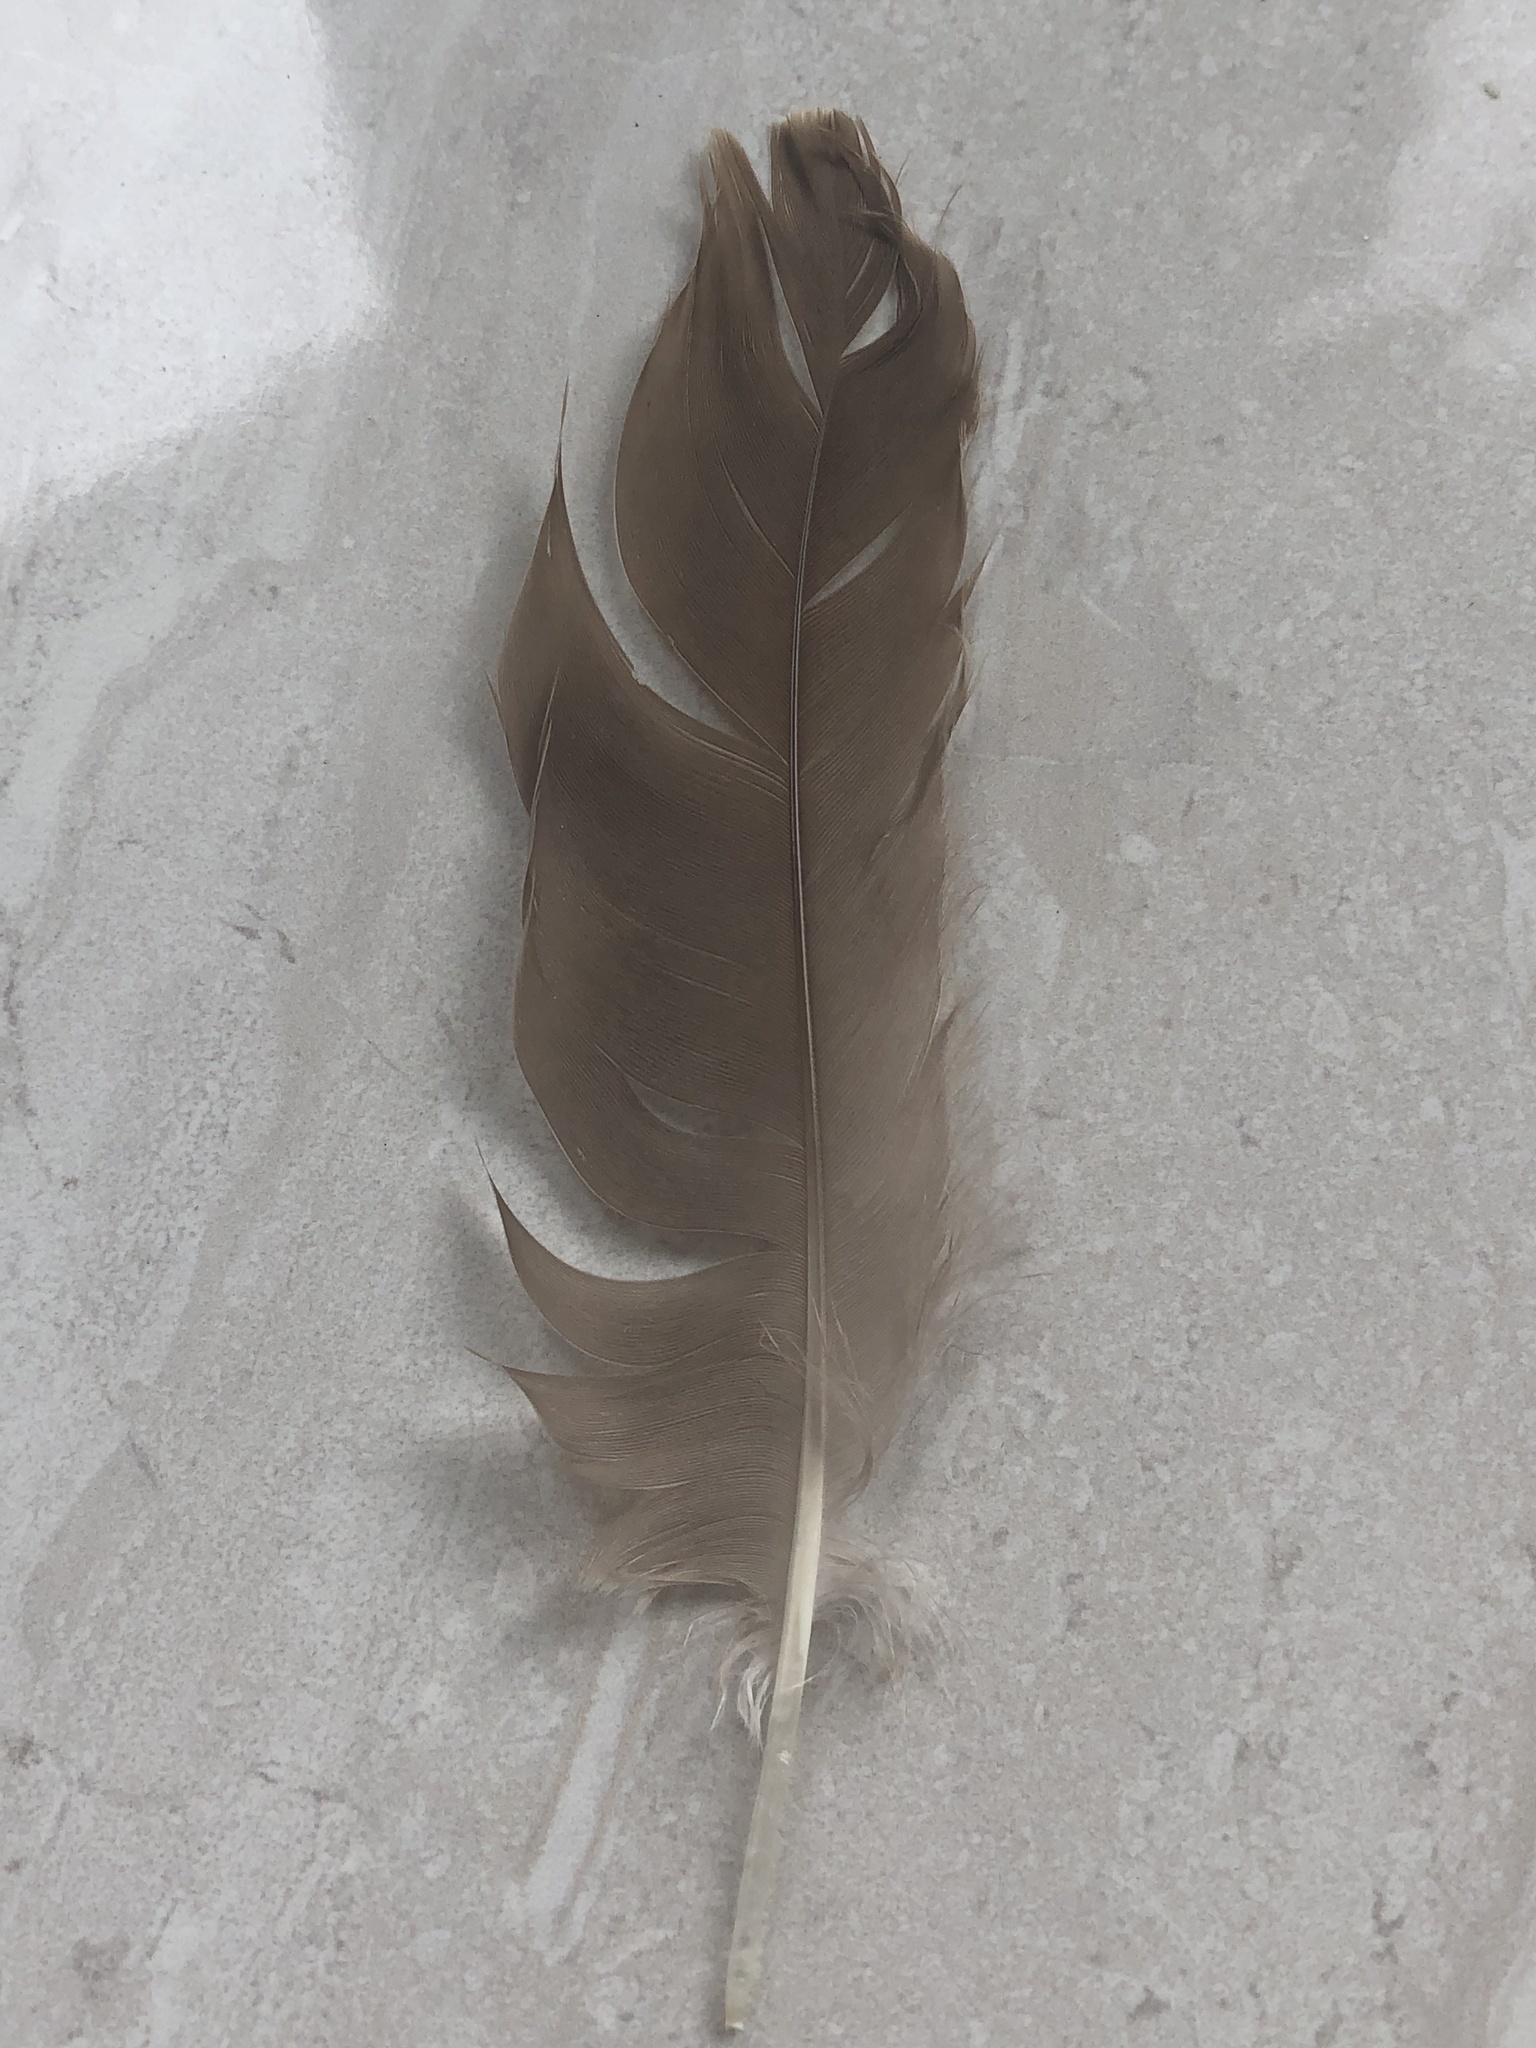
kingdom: Animalia
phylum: Chordata
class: Aves
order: Anseriformes
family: Anatidae
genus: Branta
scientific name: Branta canadensis
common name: Canada goose
